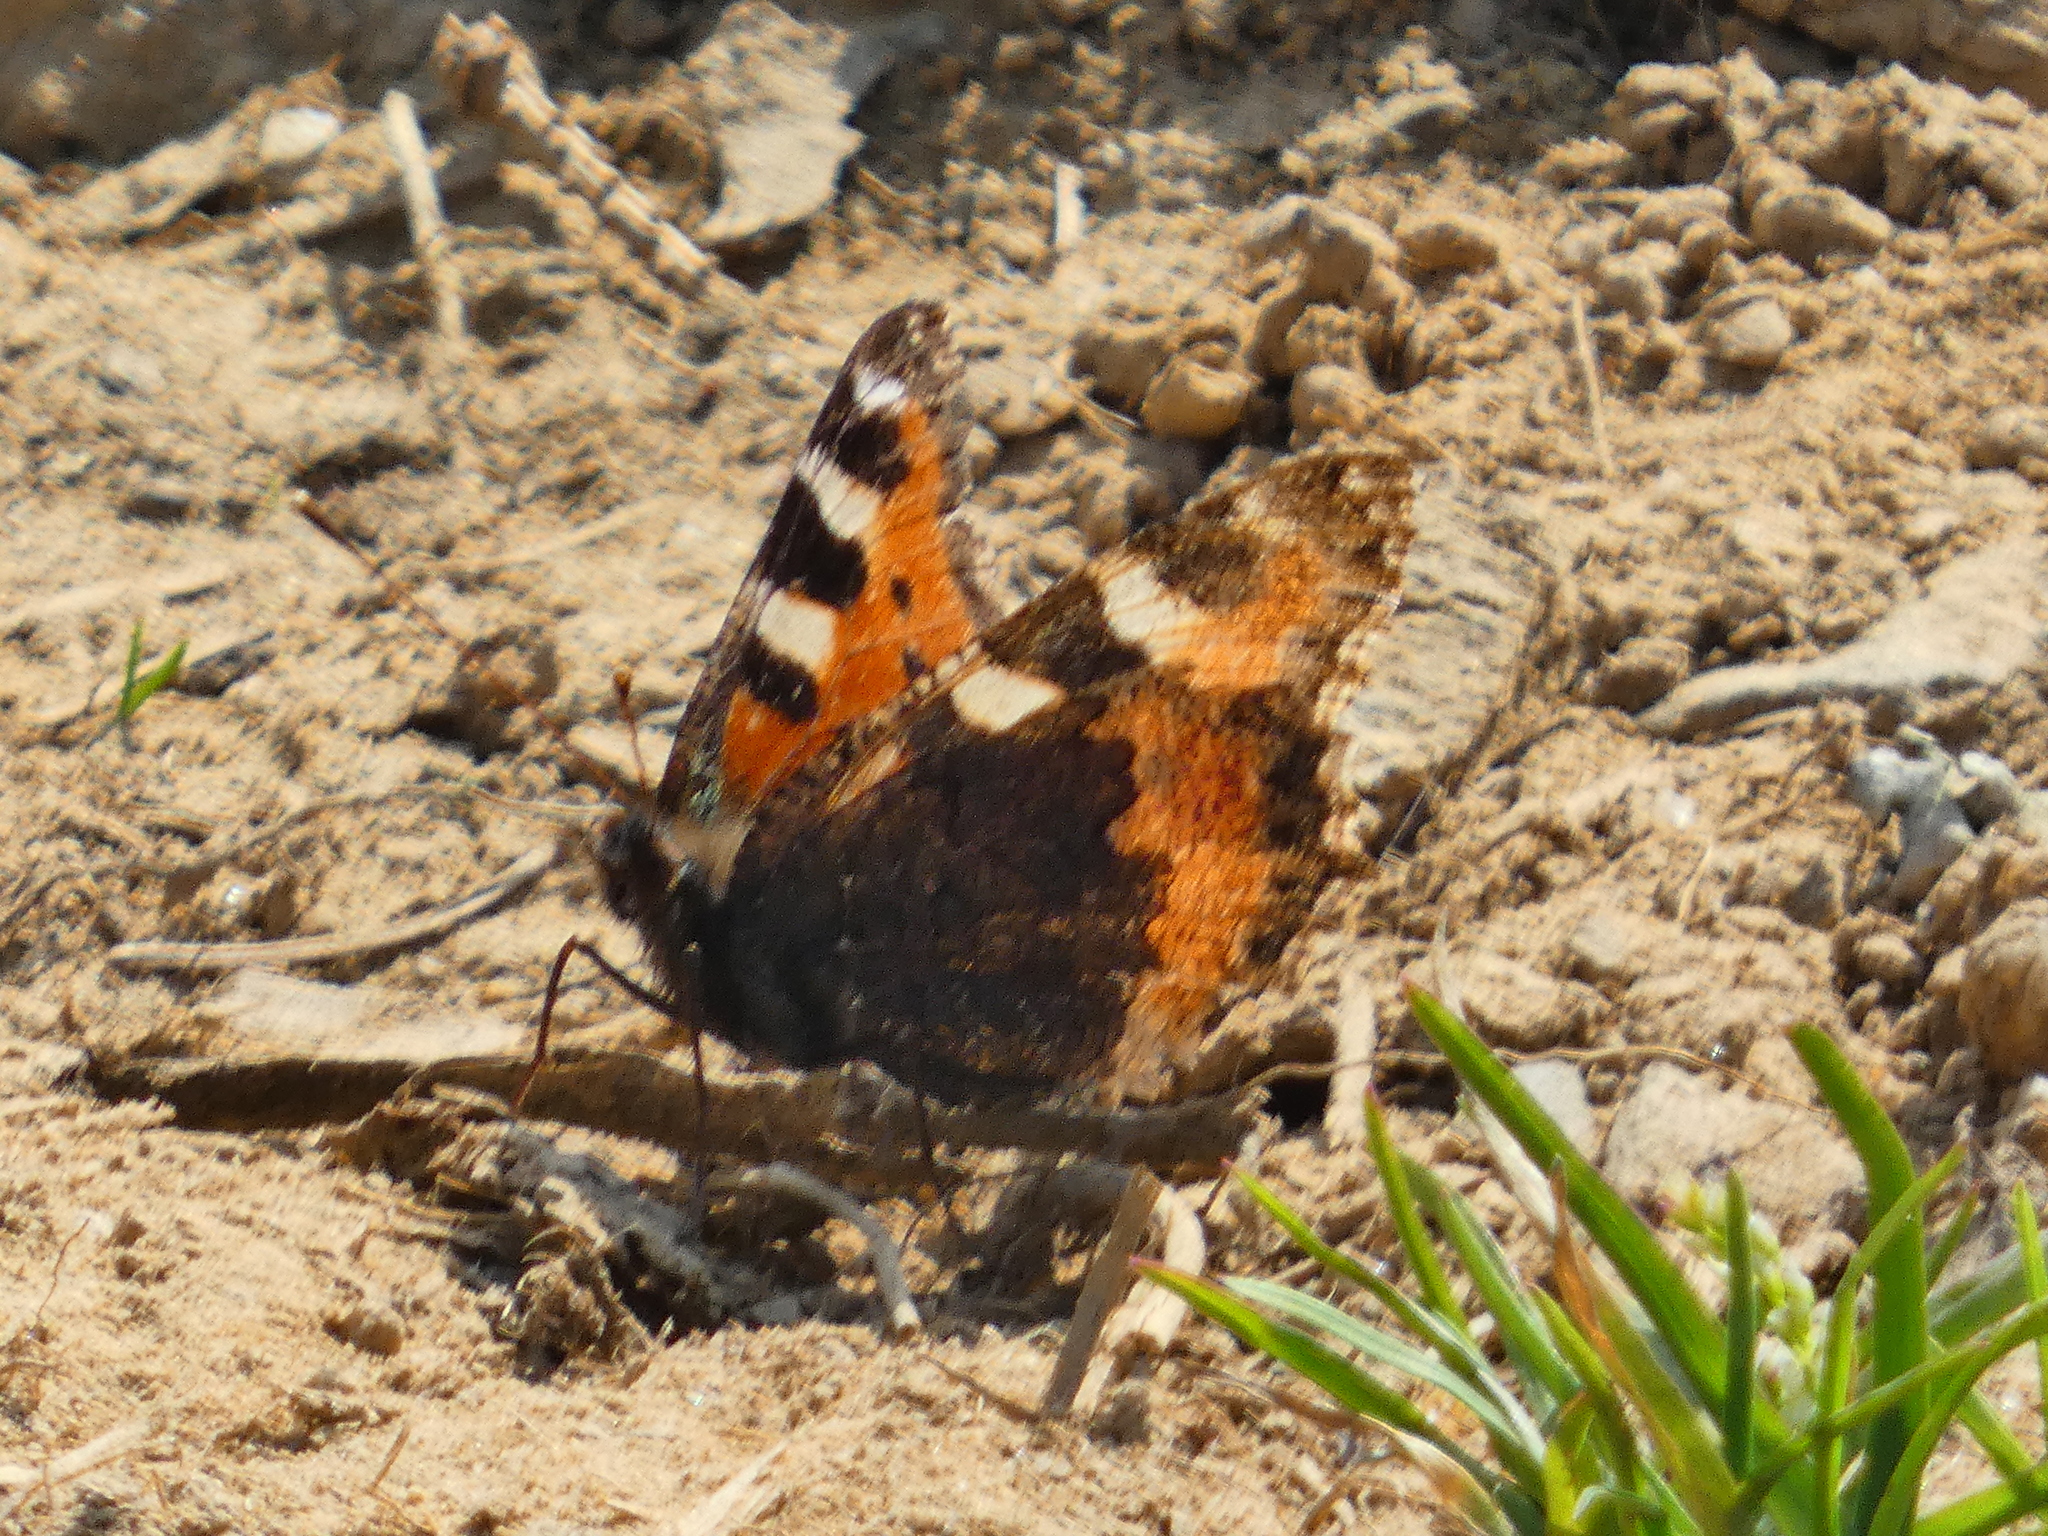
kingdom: Animalia
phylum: Arthropoda
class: Insecta
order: Lepidoptera
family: Nymphalidae
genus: Aglais
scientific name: Aglais urticae
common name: Small tortoiseshell
